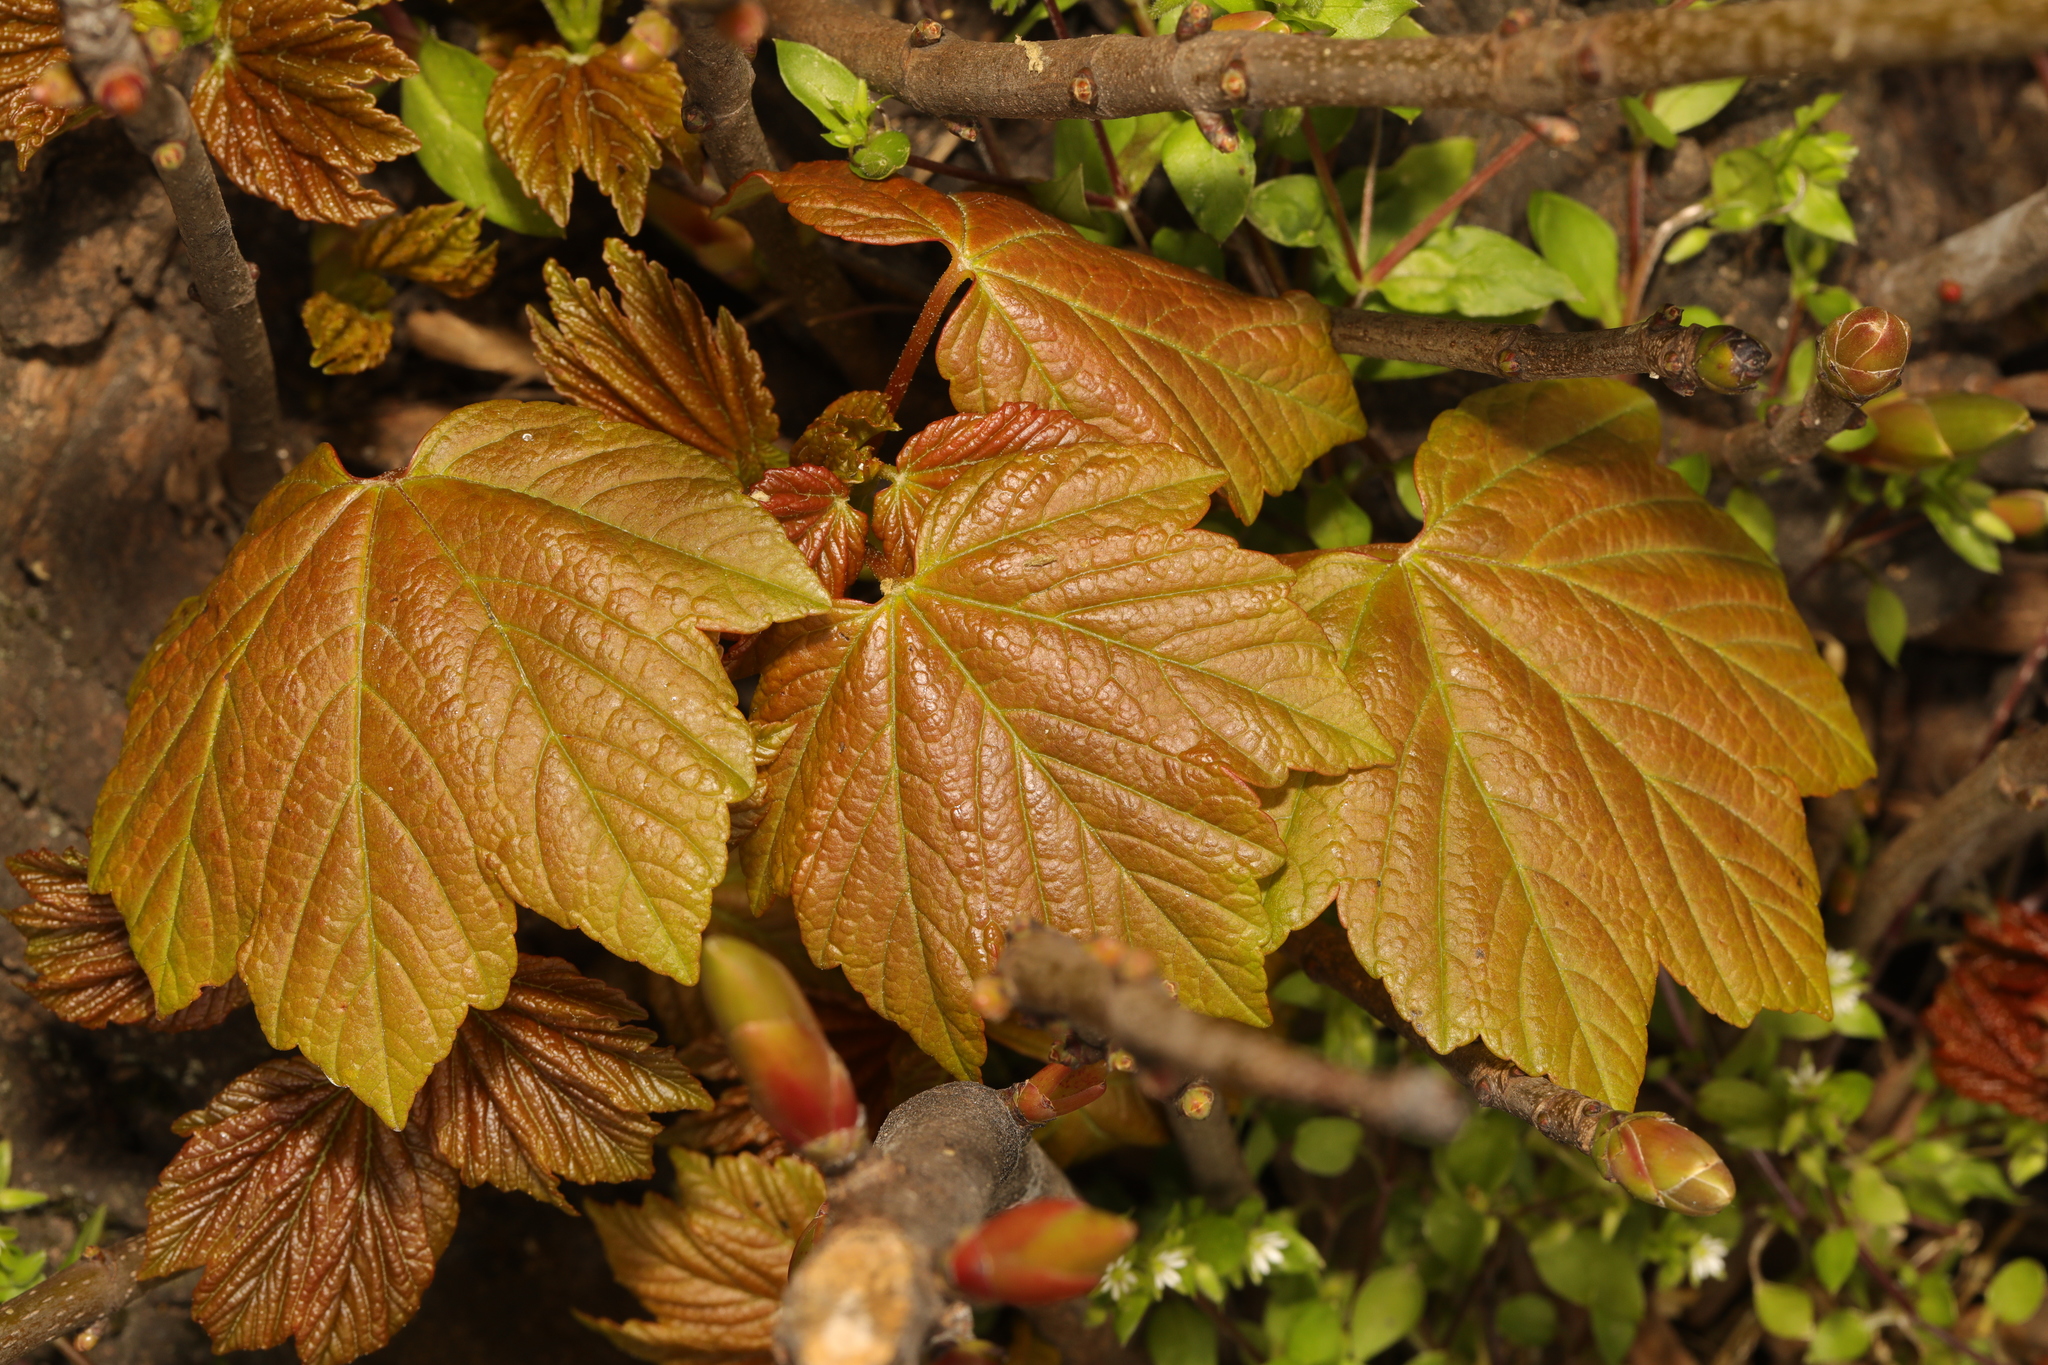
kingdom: Plantae
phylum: Tracheophyta
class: Magnoliopsida
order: Sapindales
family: Sapindaceae
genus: Acer
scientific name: Acer pseudoplatanus
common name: Sycamore
